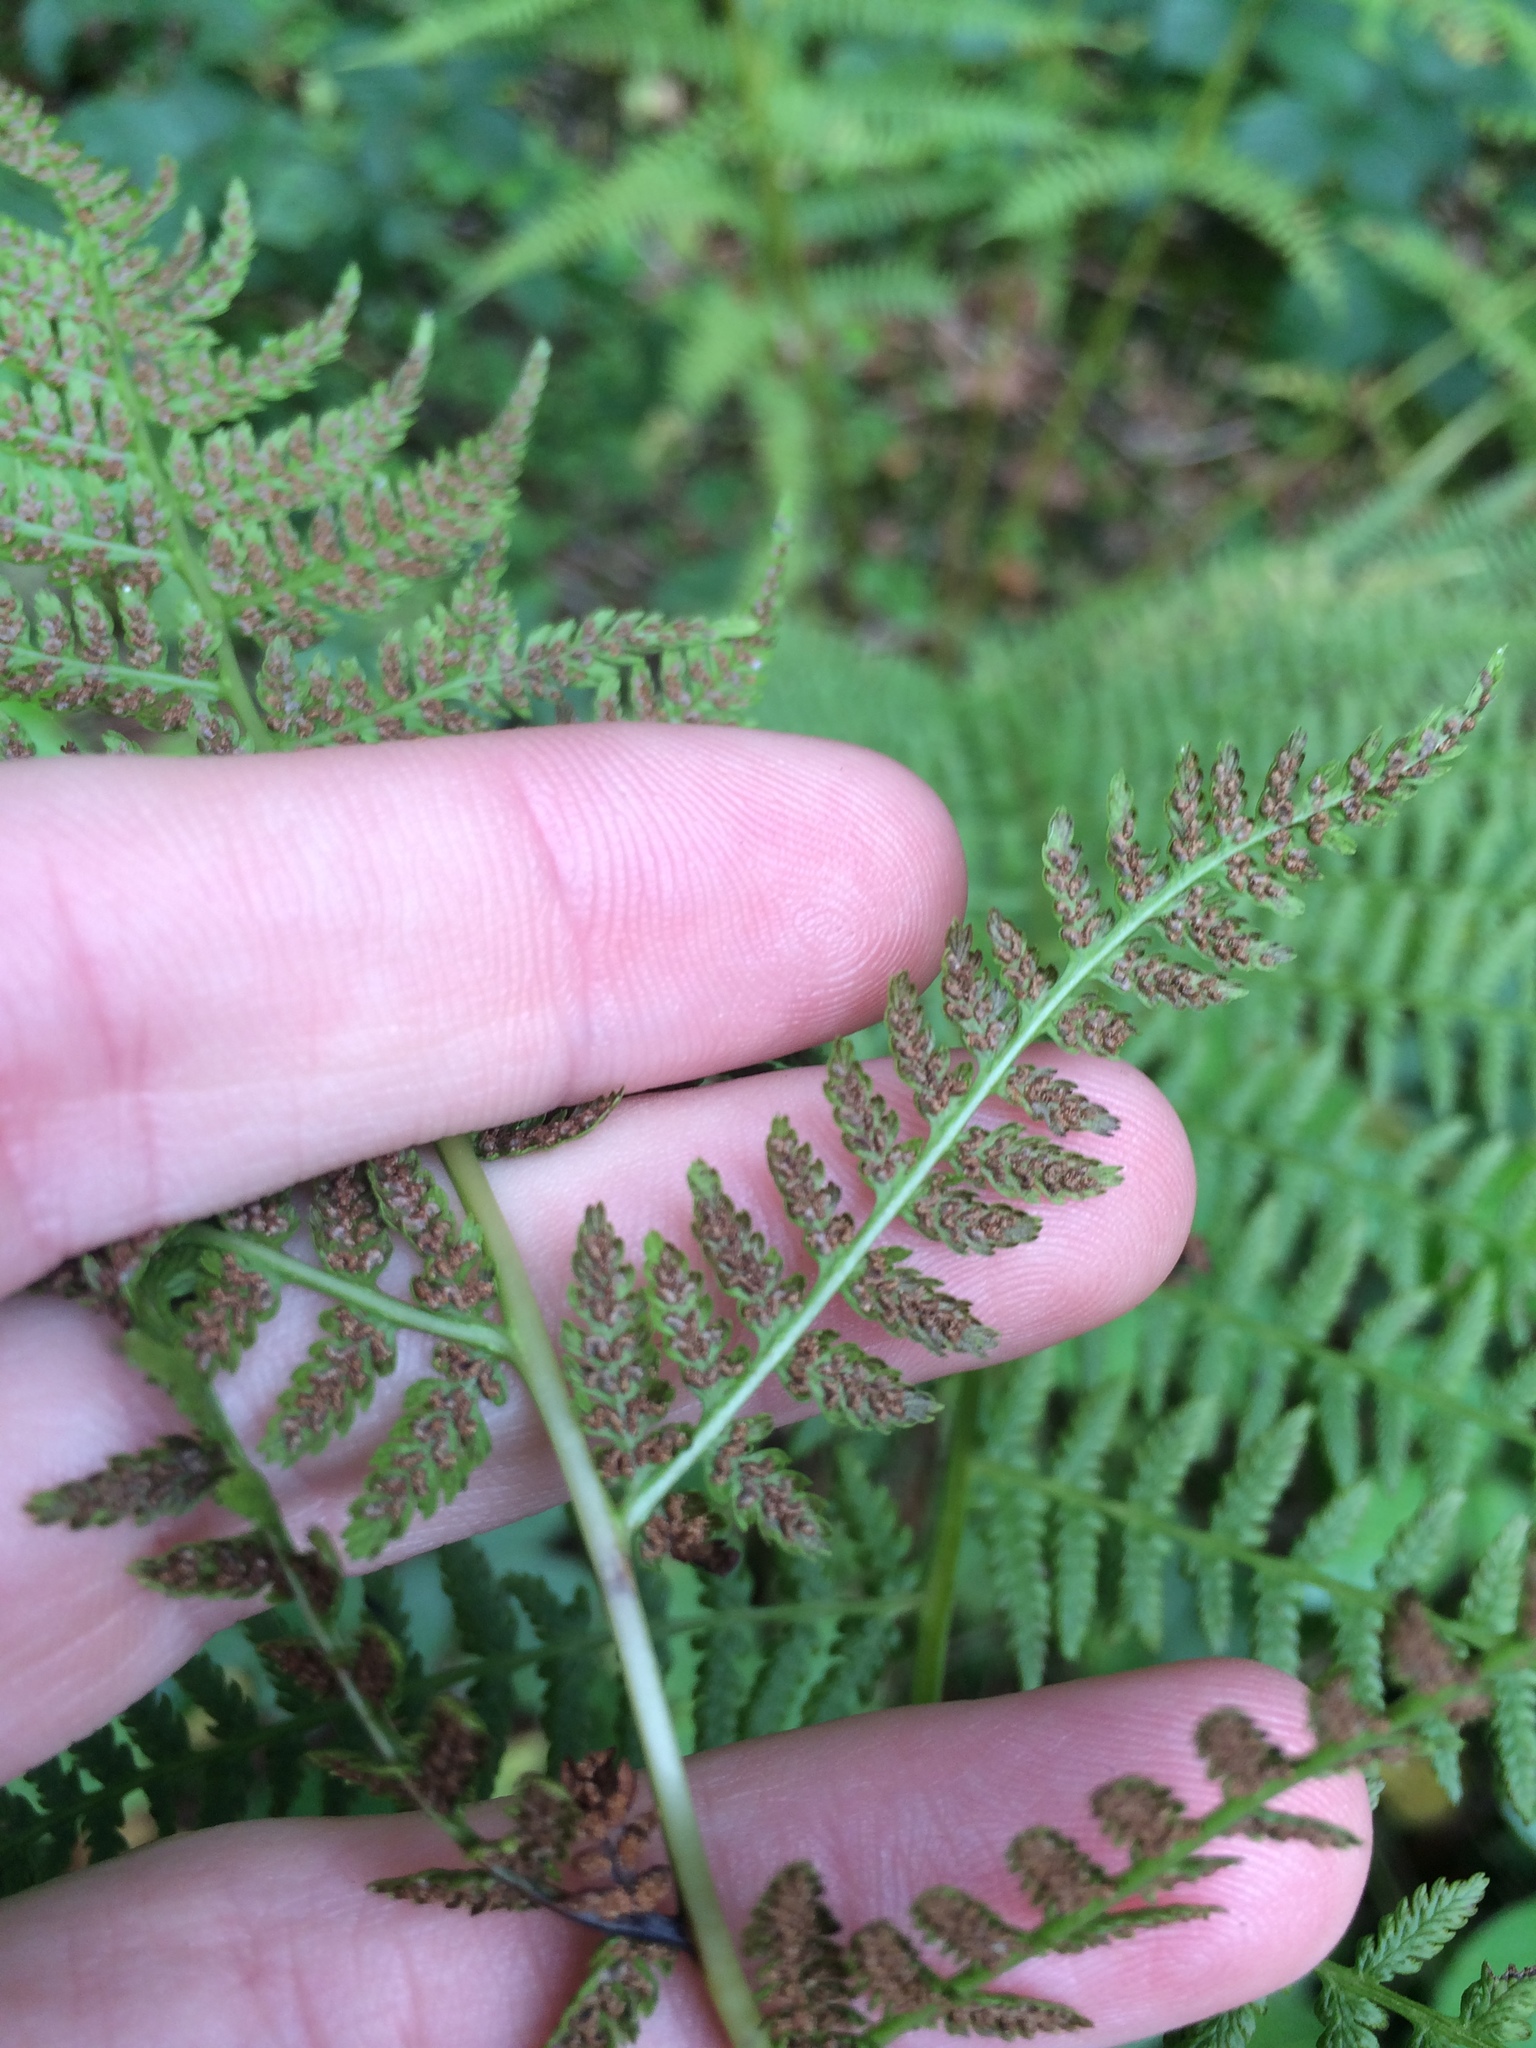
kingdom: Plantae
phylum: Tracheophyta
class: Polypodiopsida
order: Polypodiales
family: Athyriaceae
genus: Athyrium
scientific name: Athyrium filix-femina
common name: Lady fern
